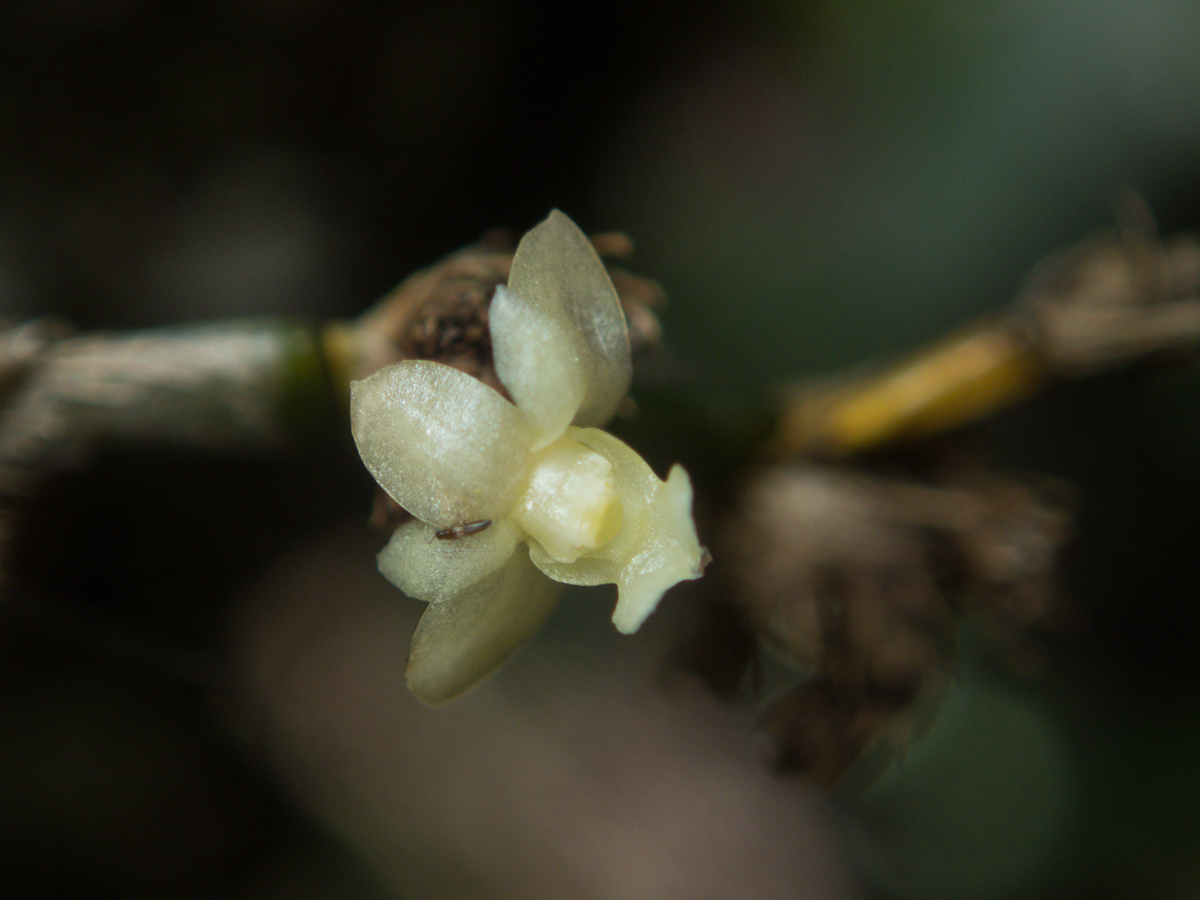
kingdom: Plantae
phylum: Tracheophyta
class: Liliopsida
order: Asparagales
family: Orchidaceae
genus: Dendrobium
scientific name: Dendrobium aloifolium
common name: Aloe-like dendrobium
